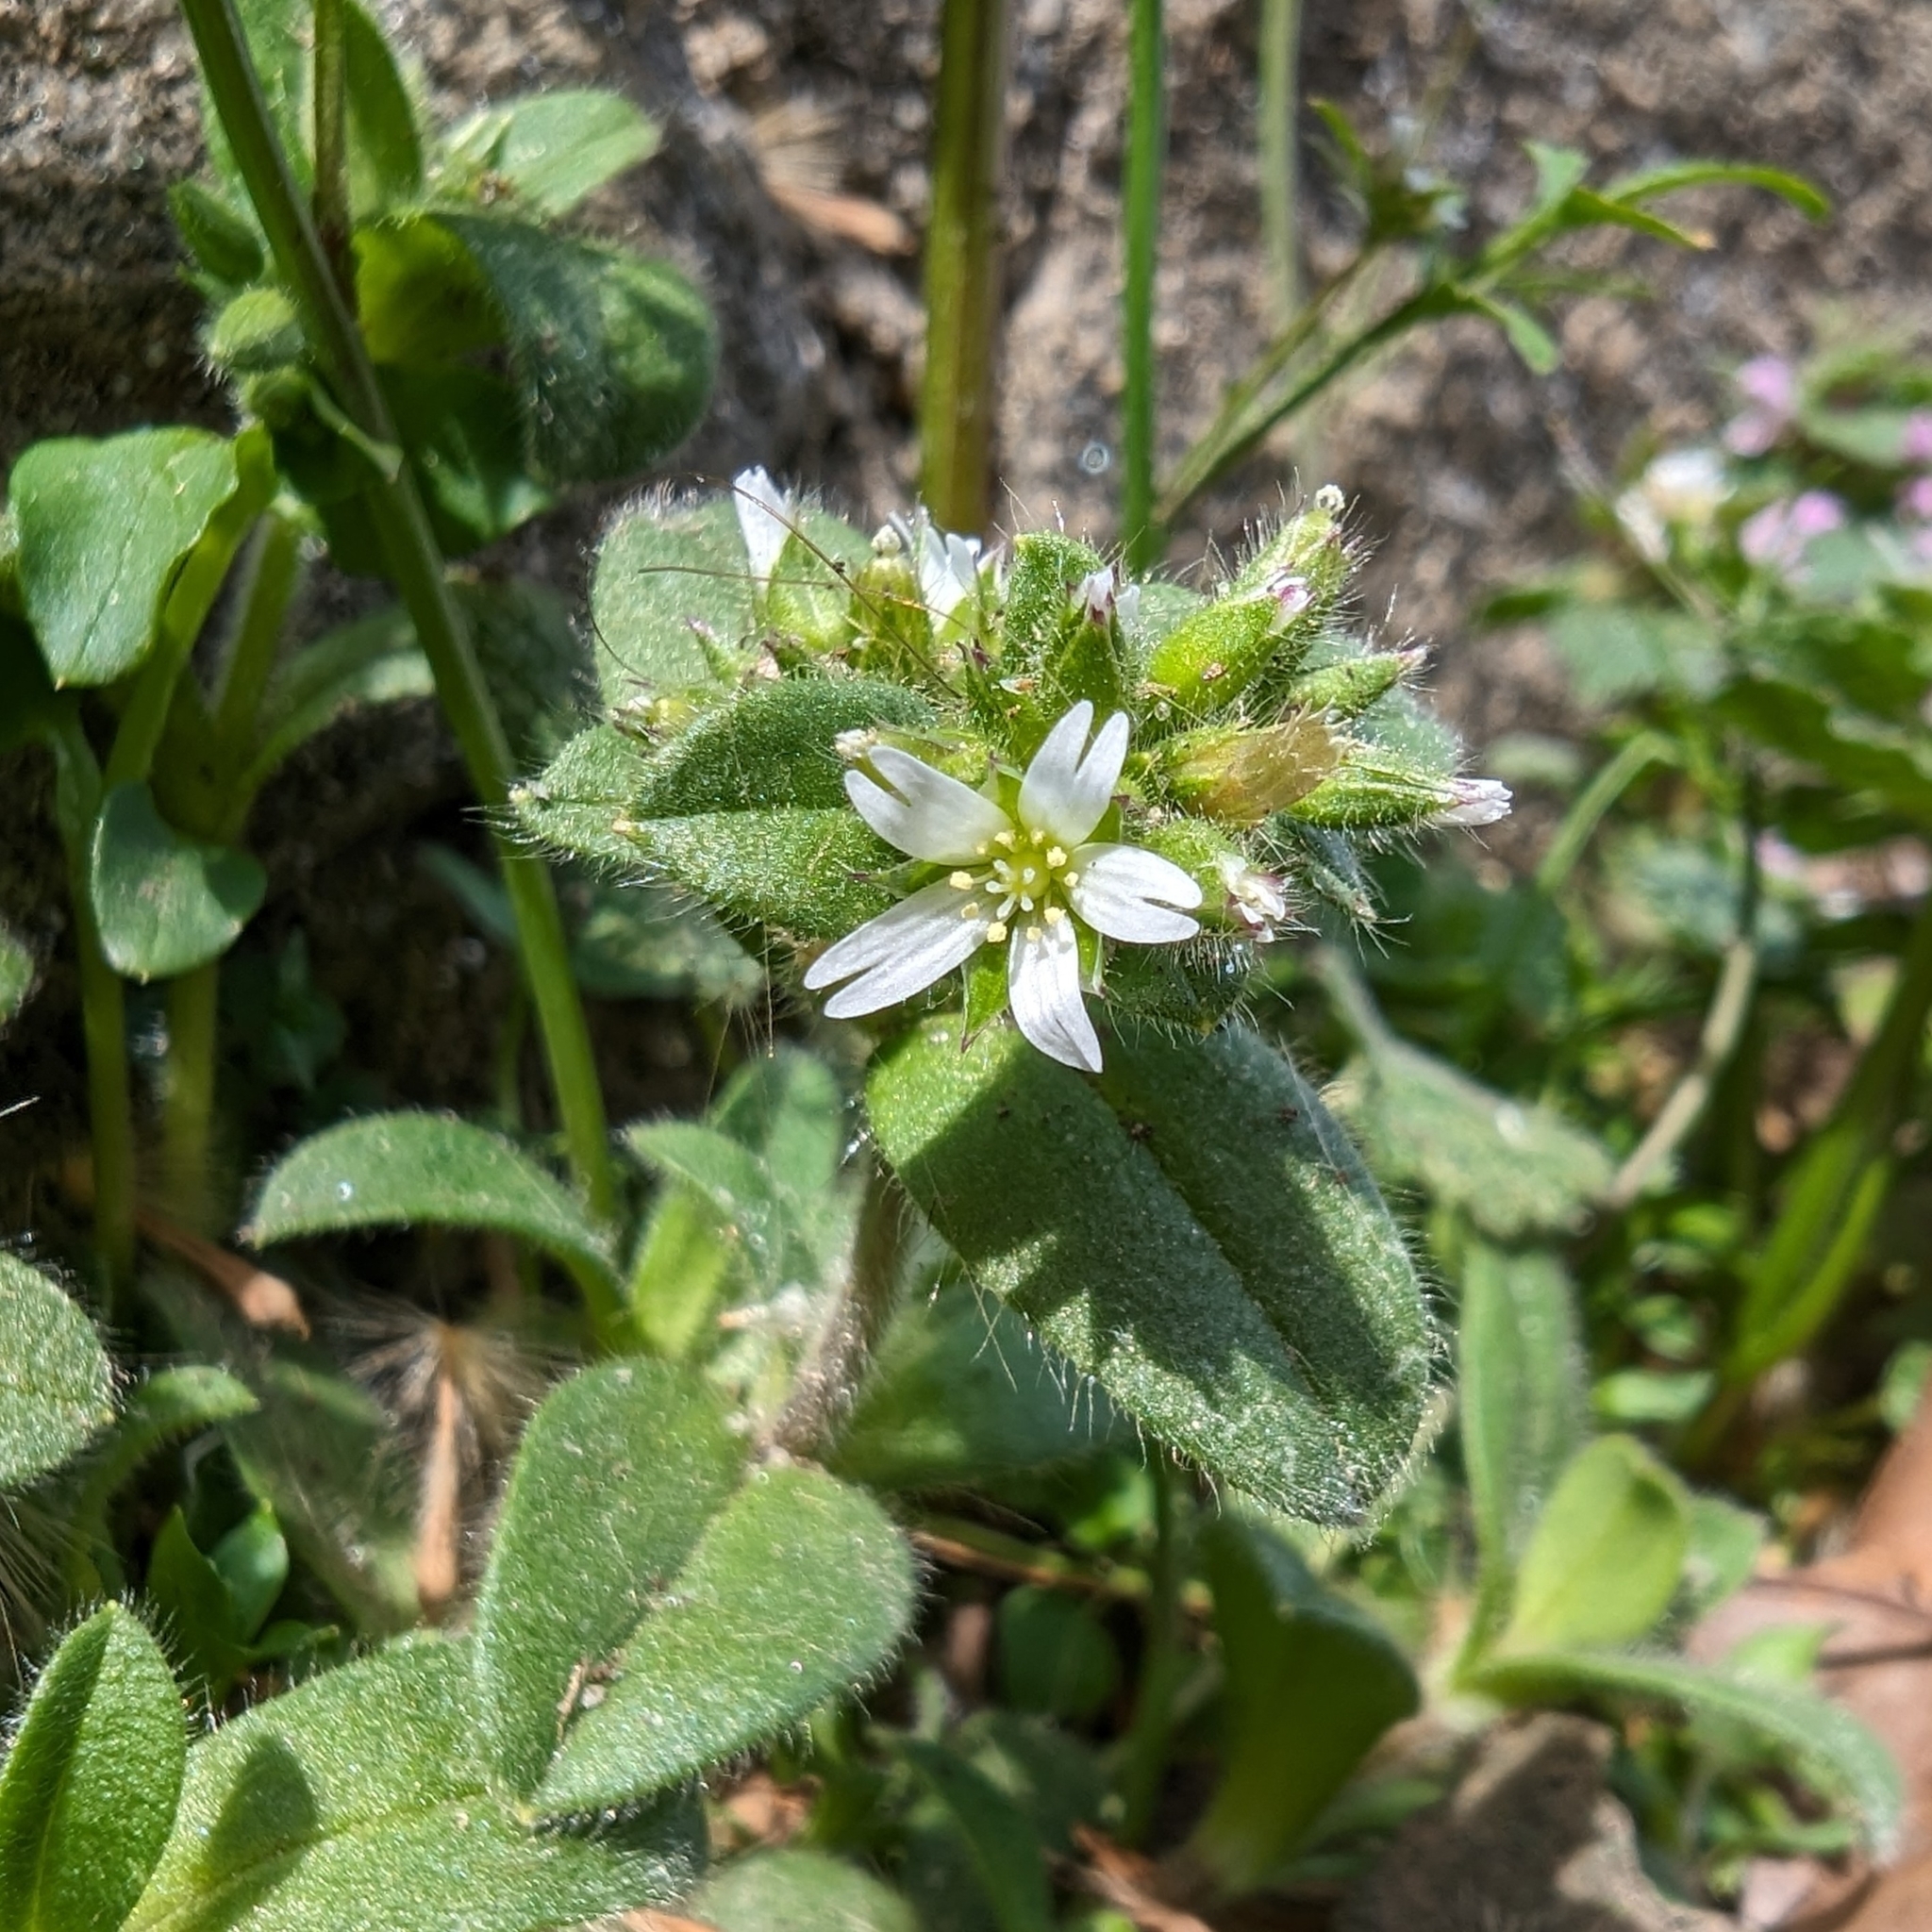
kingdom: Plantae
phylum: Tracheophyta
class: Magnoliopsida
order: Caryophyllales
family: Caryophyllaceae
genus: Cerastium
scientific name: Cerastium glomeratum
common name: Sticky chickweed
